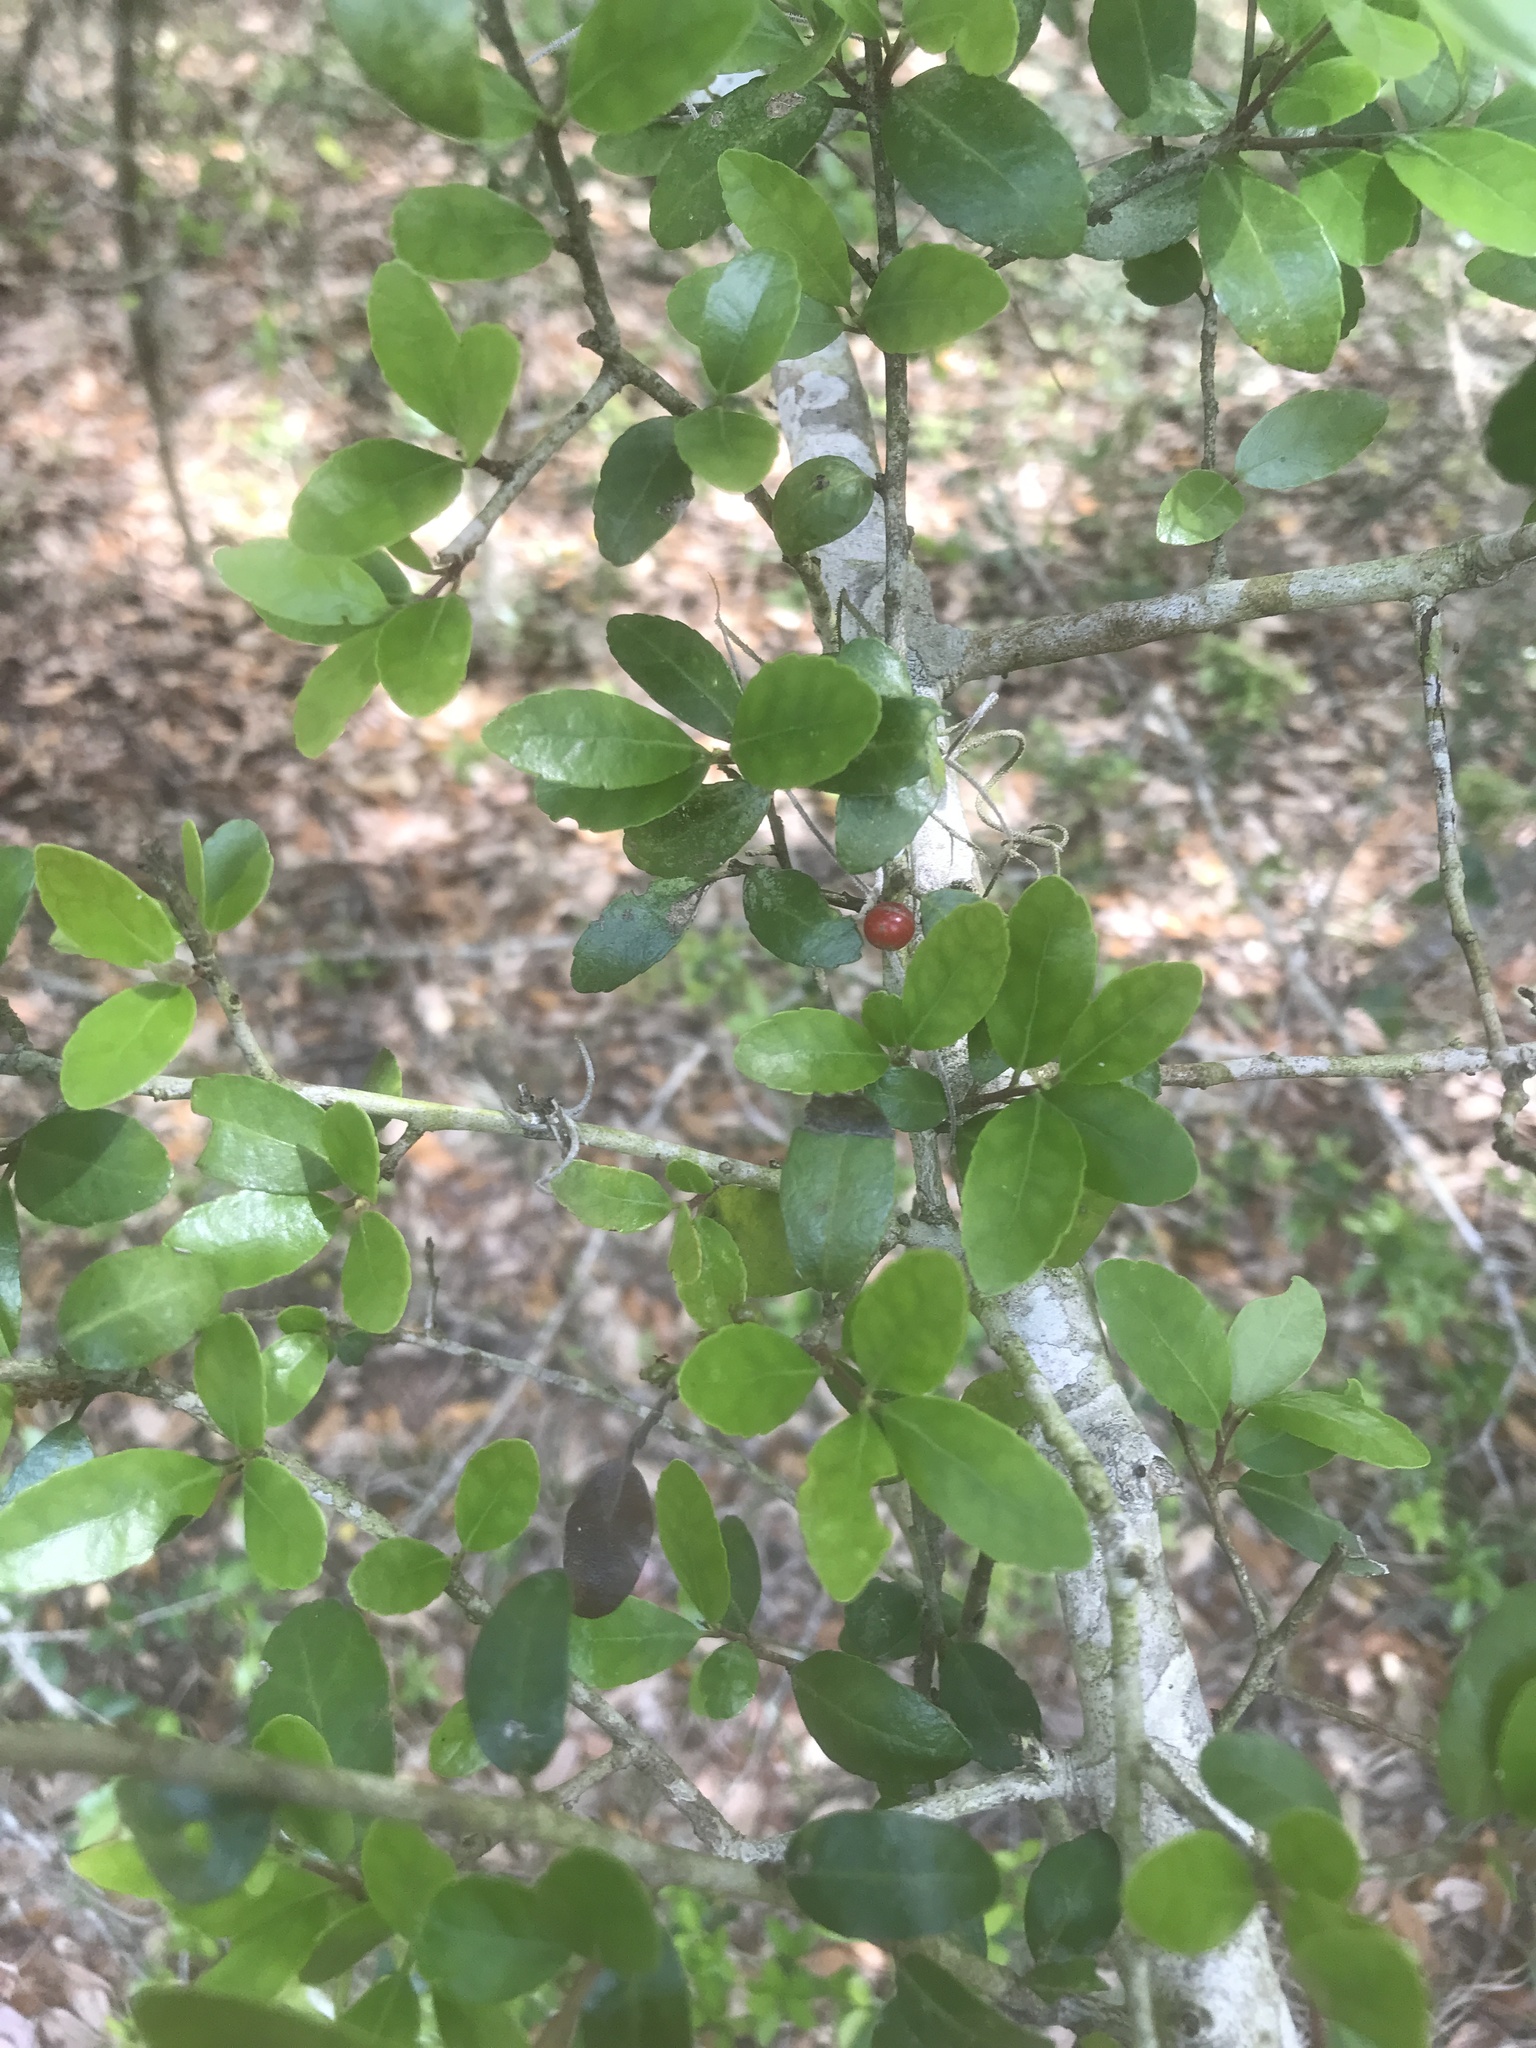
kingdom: Plantae
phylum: Tracheophyta
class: Magnoliopsida
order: Aquifoliales
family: Aquifoliaceae
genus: Ilex
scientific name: Ilex vomitoria
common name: Yaupon holly
